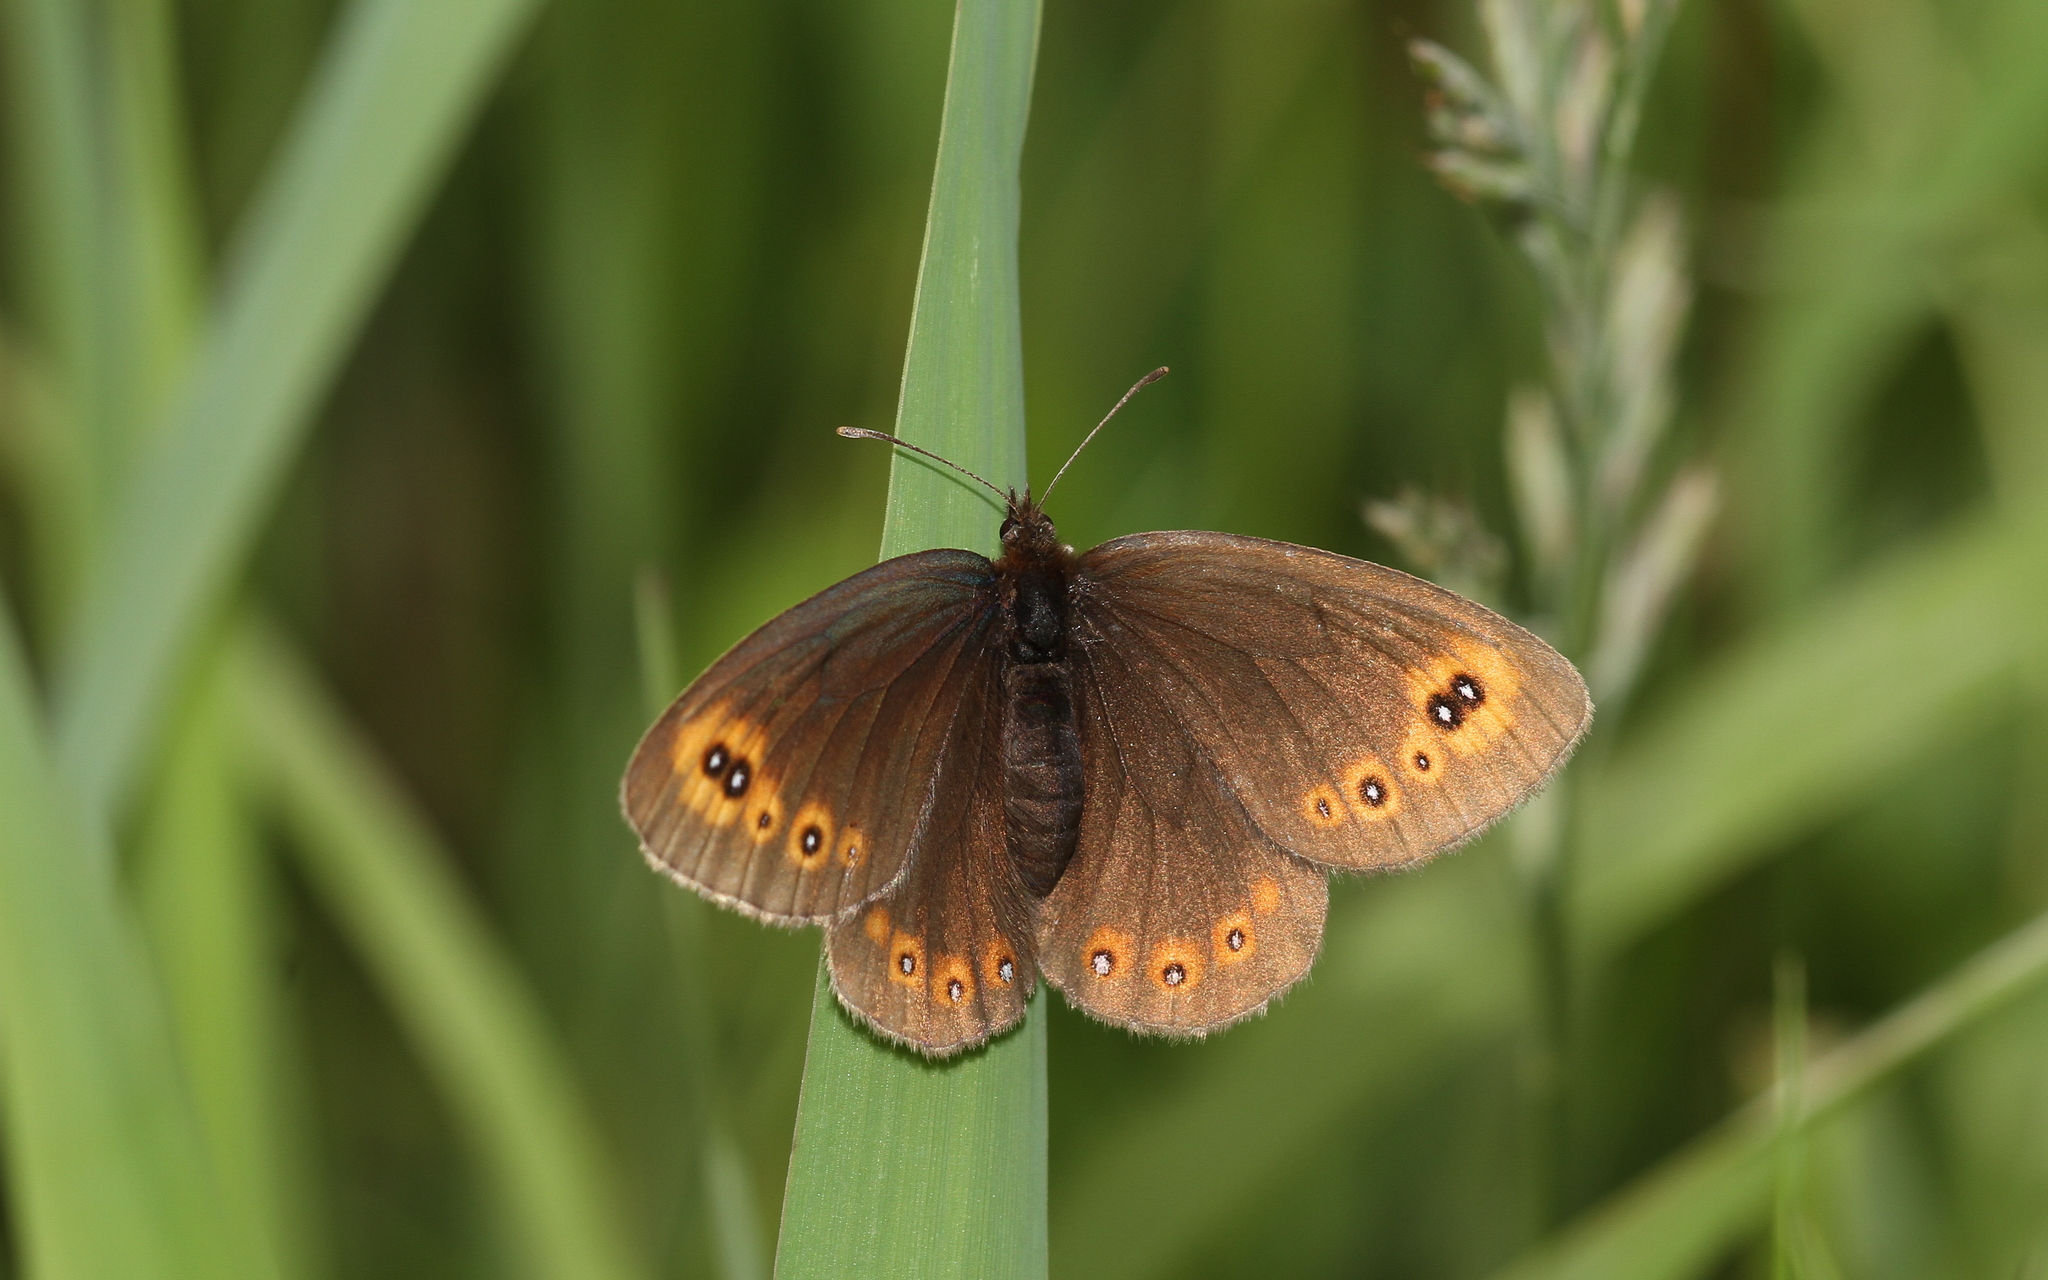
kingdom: Animalia
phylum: Arthropoda
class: Insecta
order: Lepidoptera
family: Nymphalidae
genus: Erebia
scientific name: Erebia medusa
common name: Woodland ringlet
